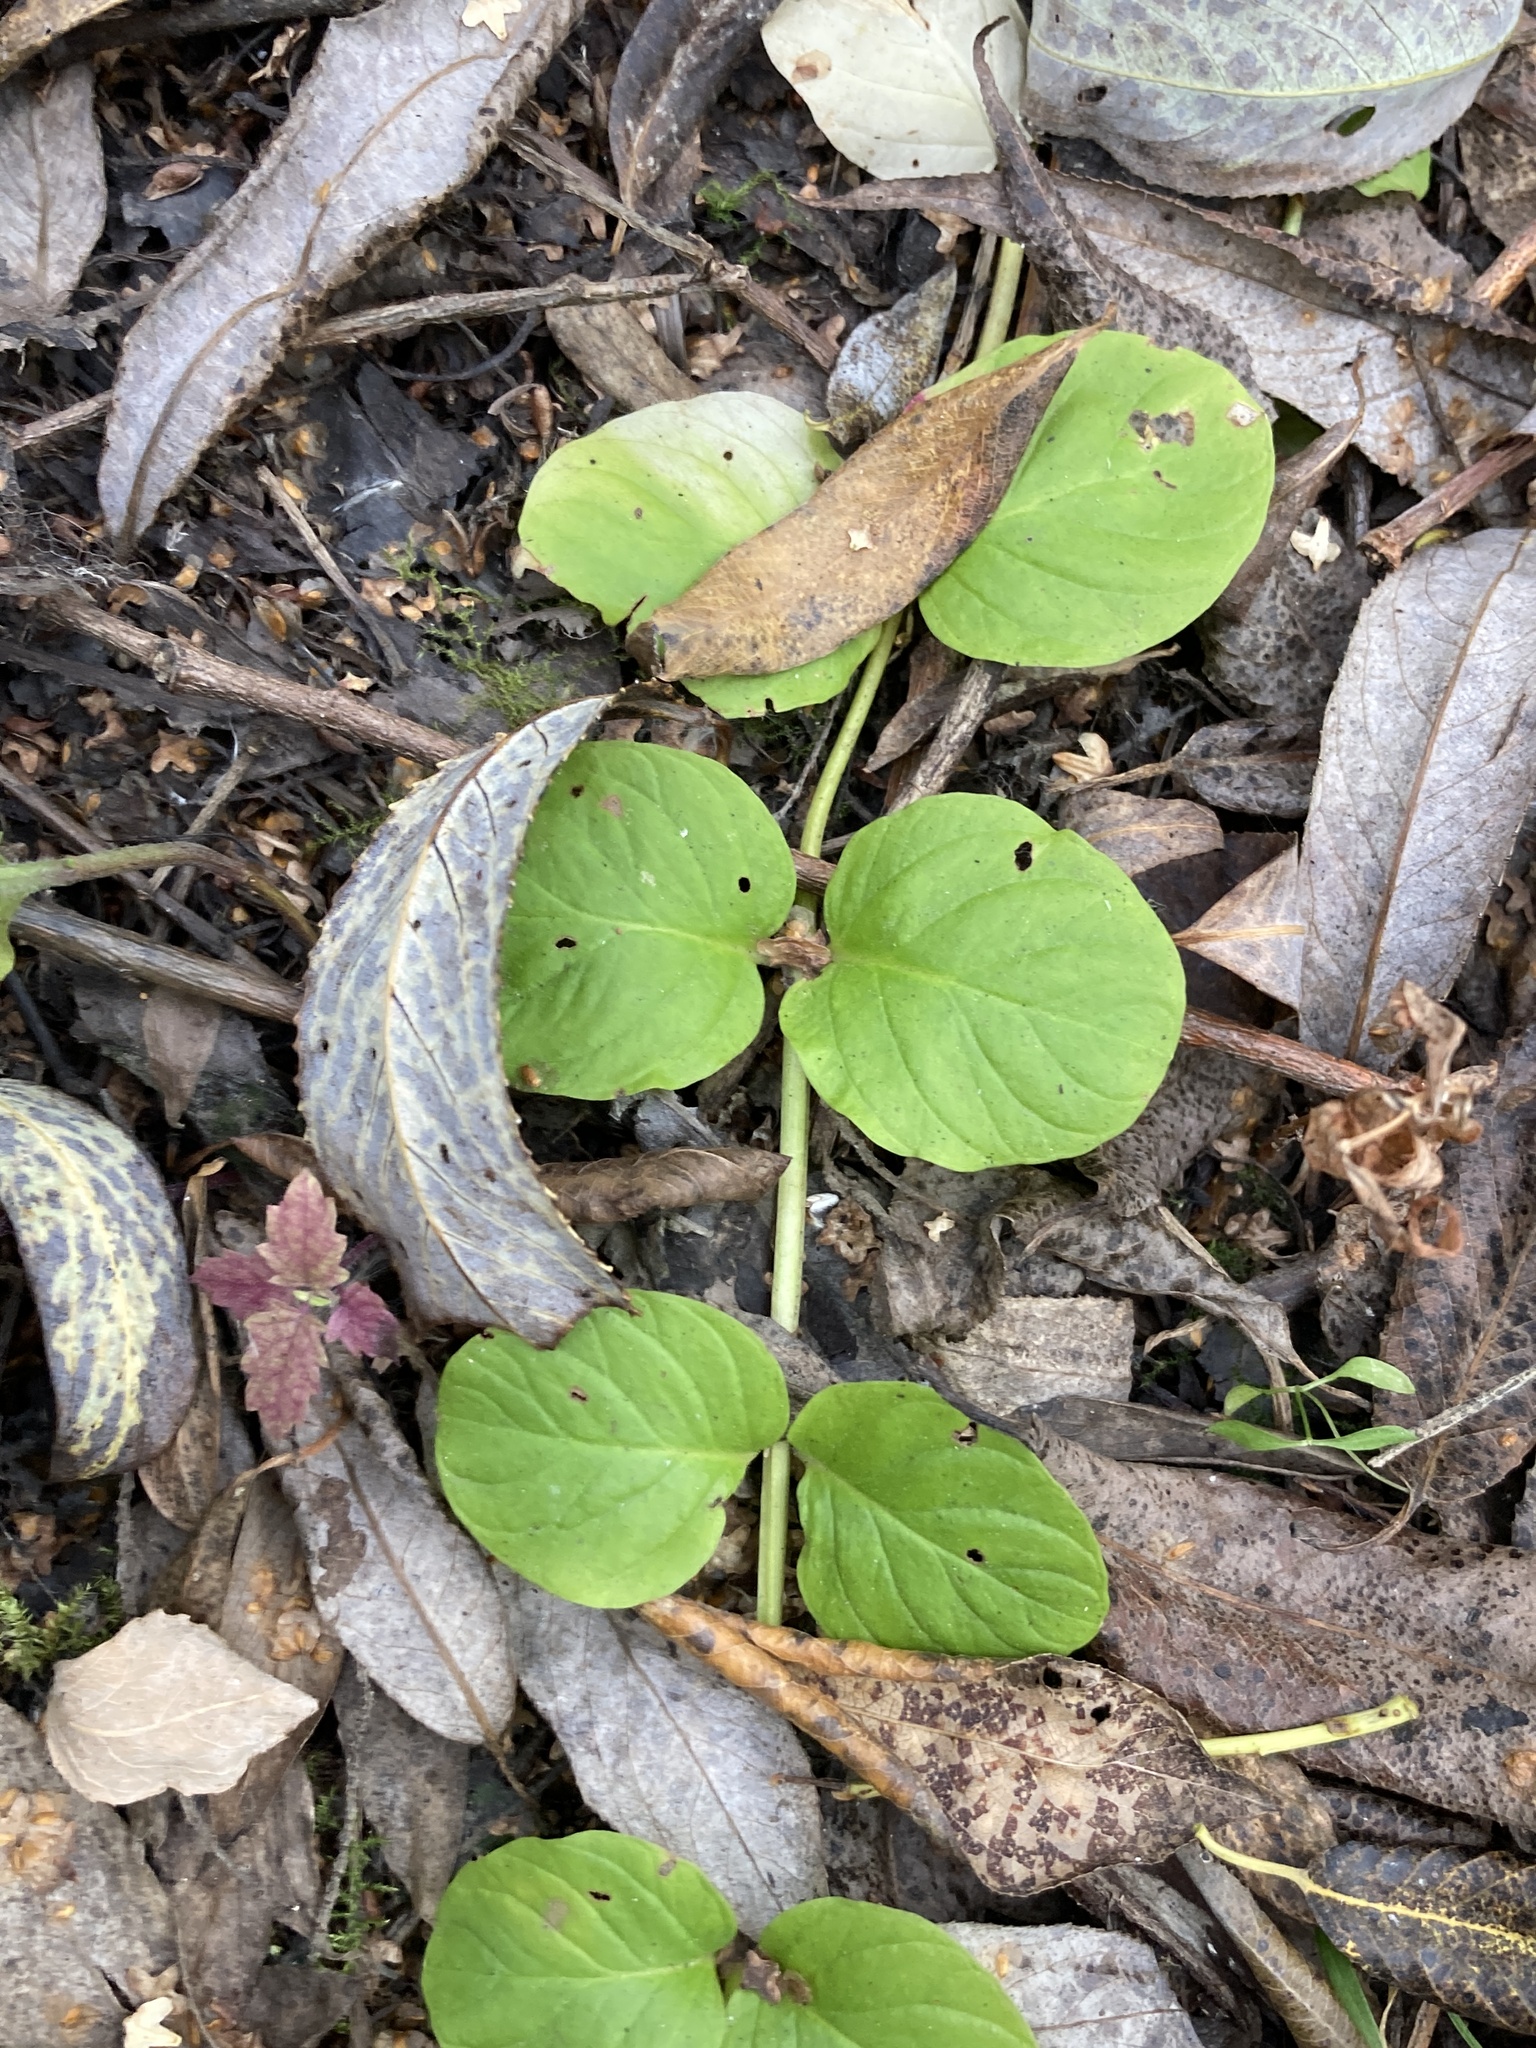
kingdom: Plantae
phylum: Tracheophyta
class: Magnoliopsida
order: Ericales
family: Primulaceae
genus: Lysimachia
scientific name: Lysimachia nummularia
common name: Moneywort
